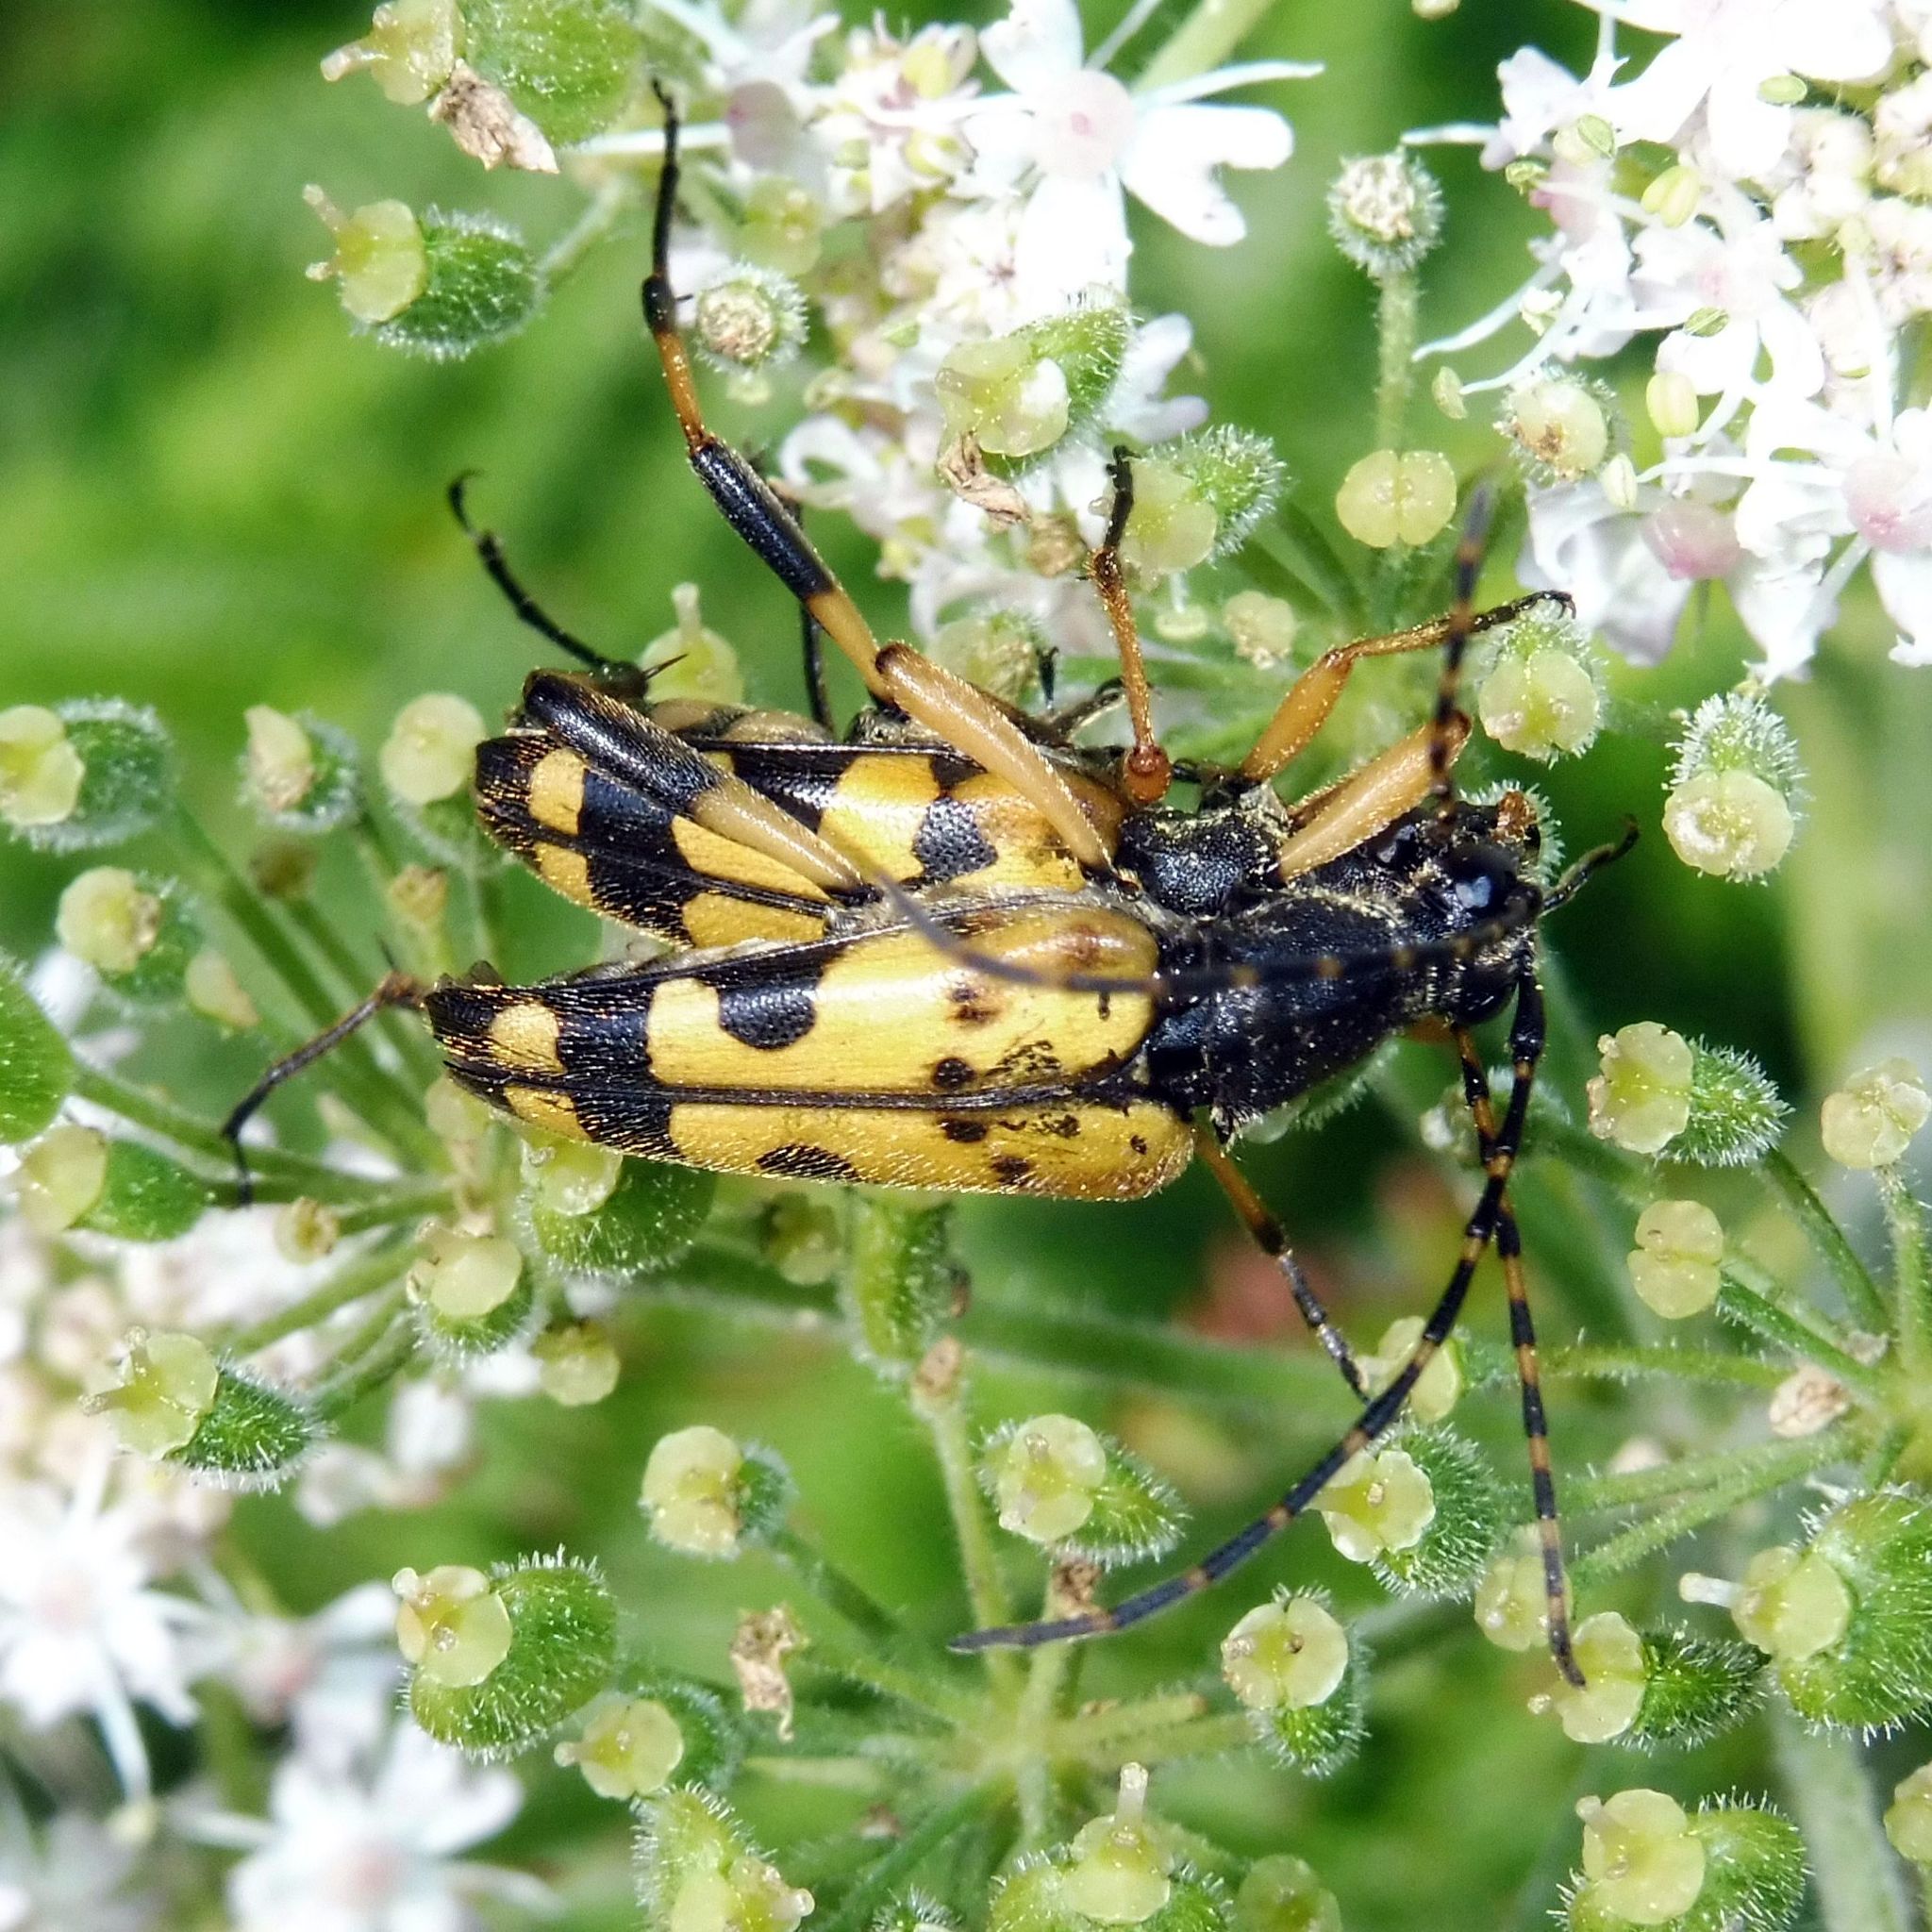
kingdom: Animalia
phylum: Arthropoda
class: Insecta
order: Coleoptera
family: Cerambycidae
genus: Rutpela
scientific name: Rutpela maculata
